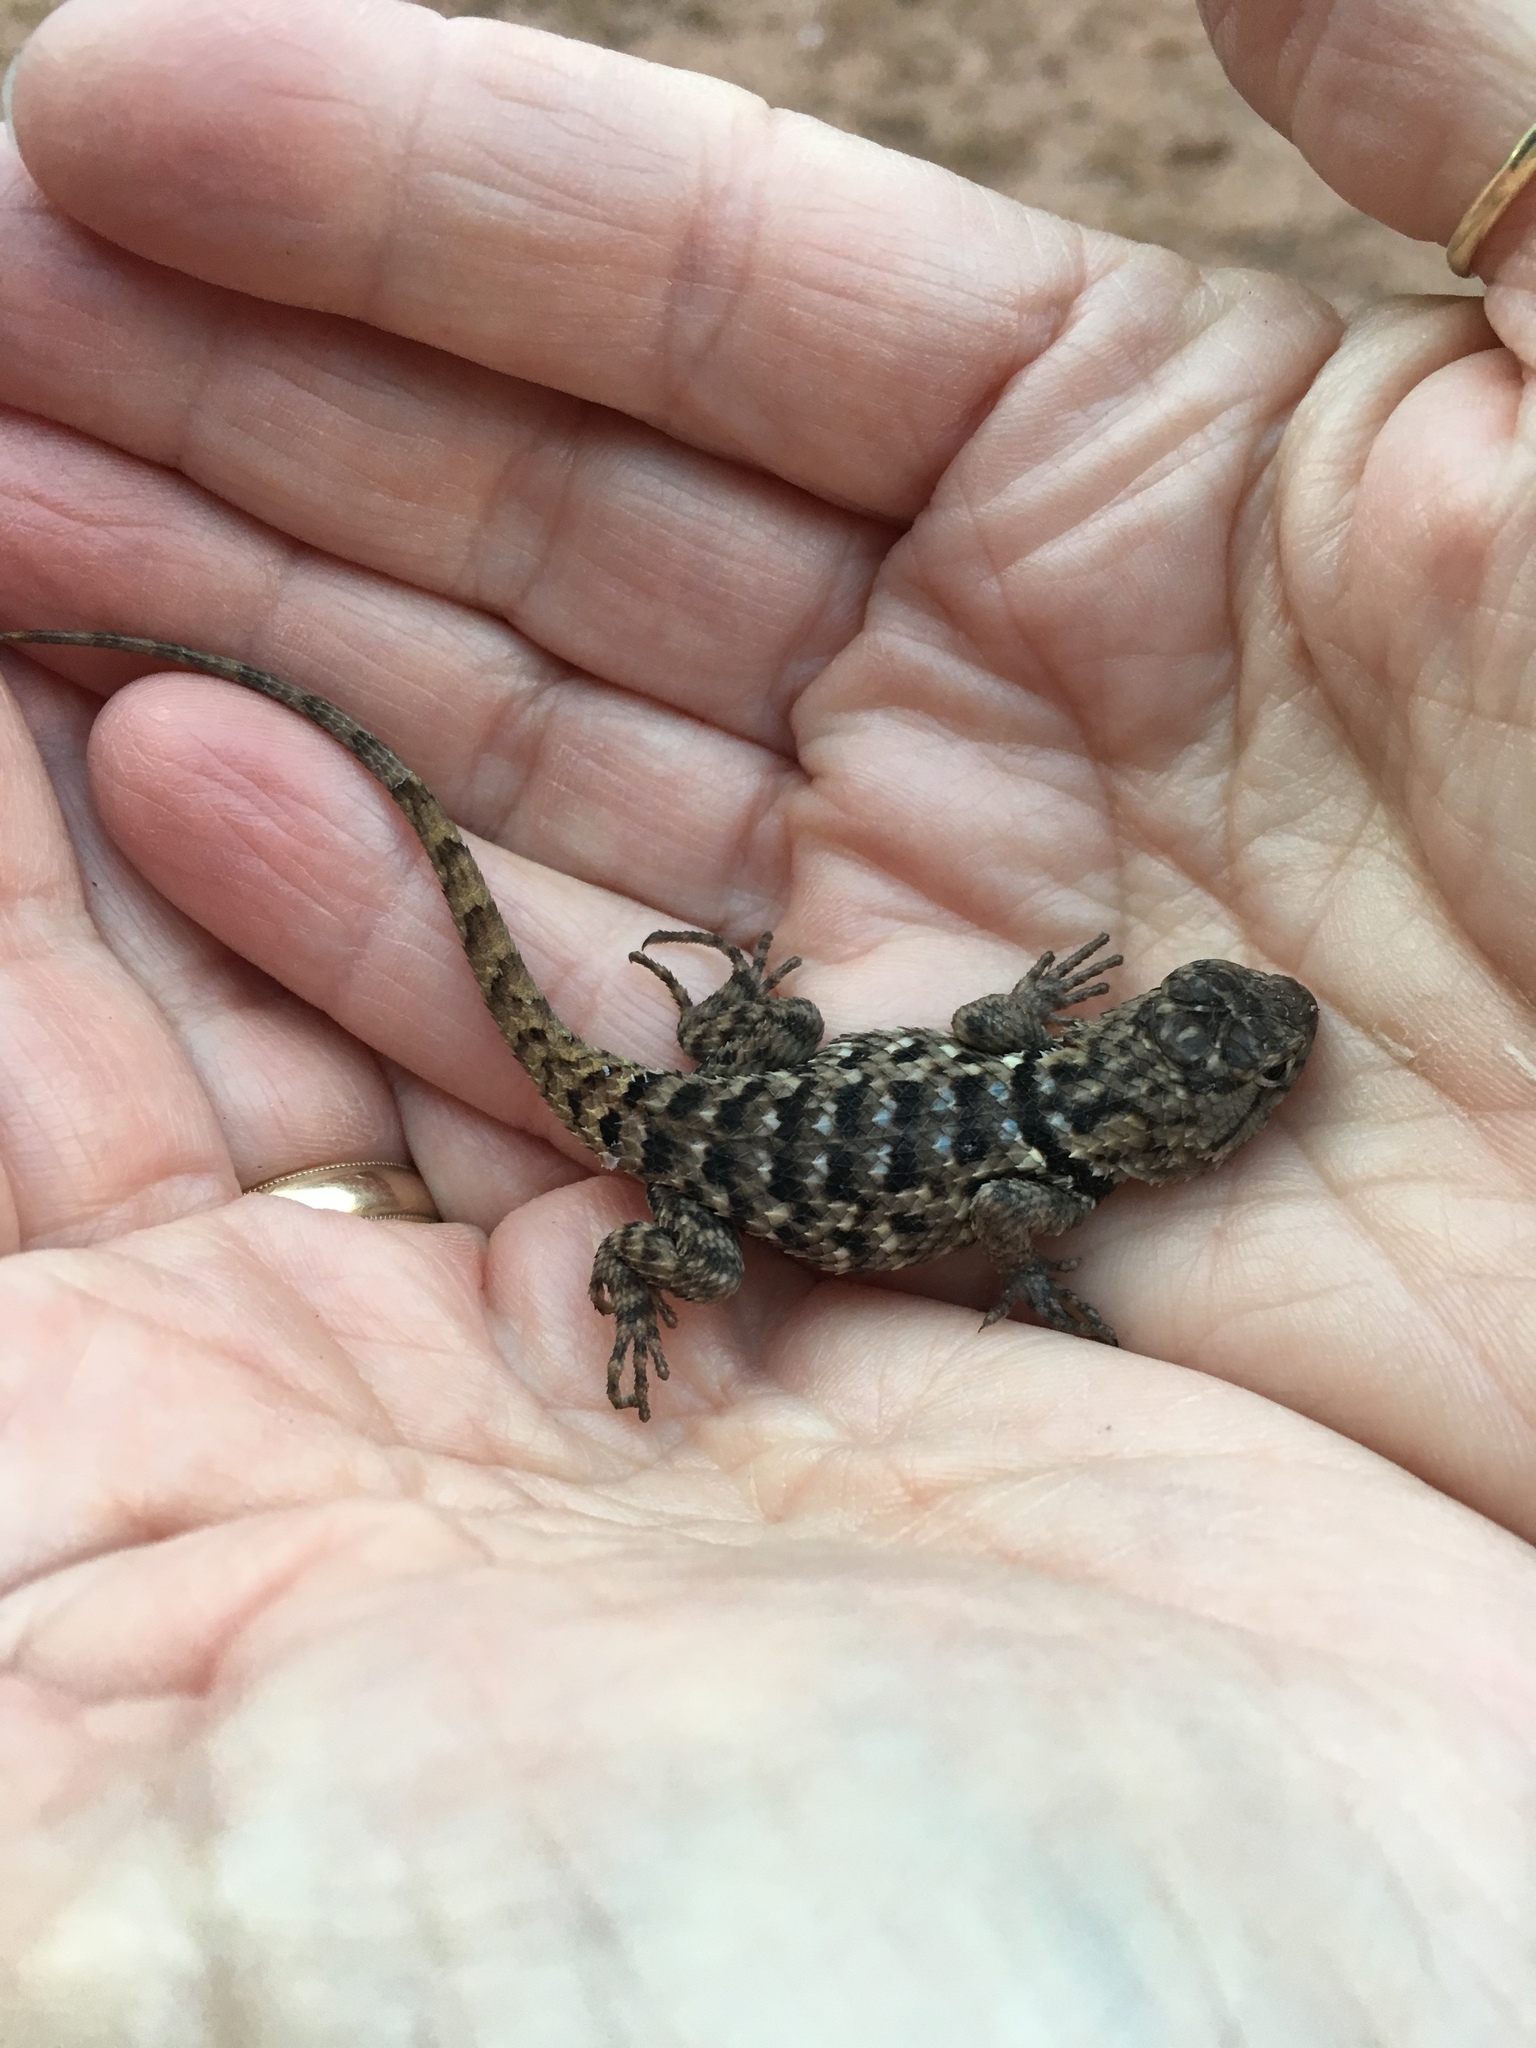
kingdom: Animalia
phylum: Chordata
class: Squamata
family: Phrynosomatidae
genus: Sceloporus
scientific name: Sceloporus magister
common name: Desert spiny lizard
